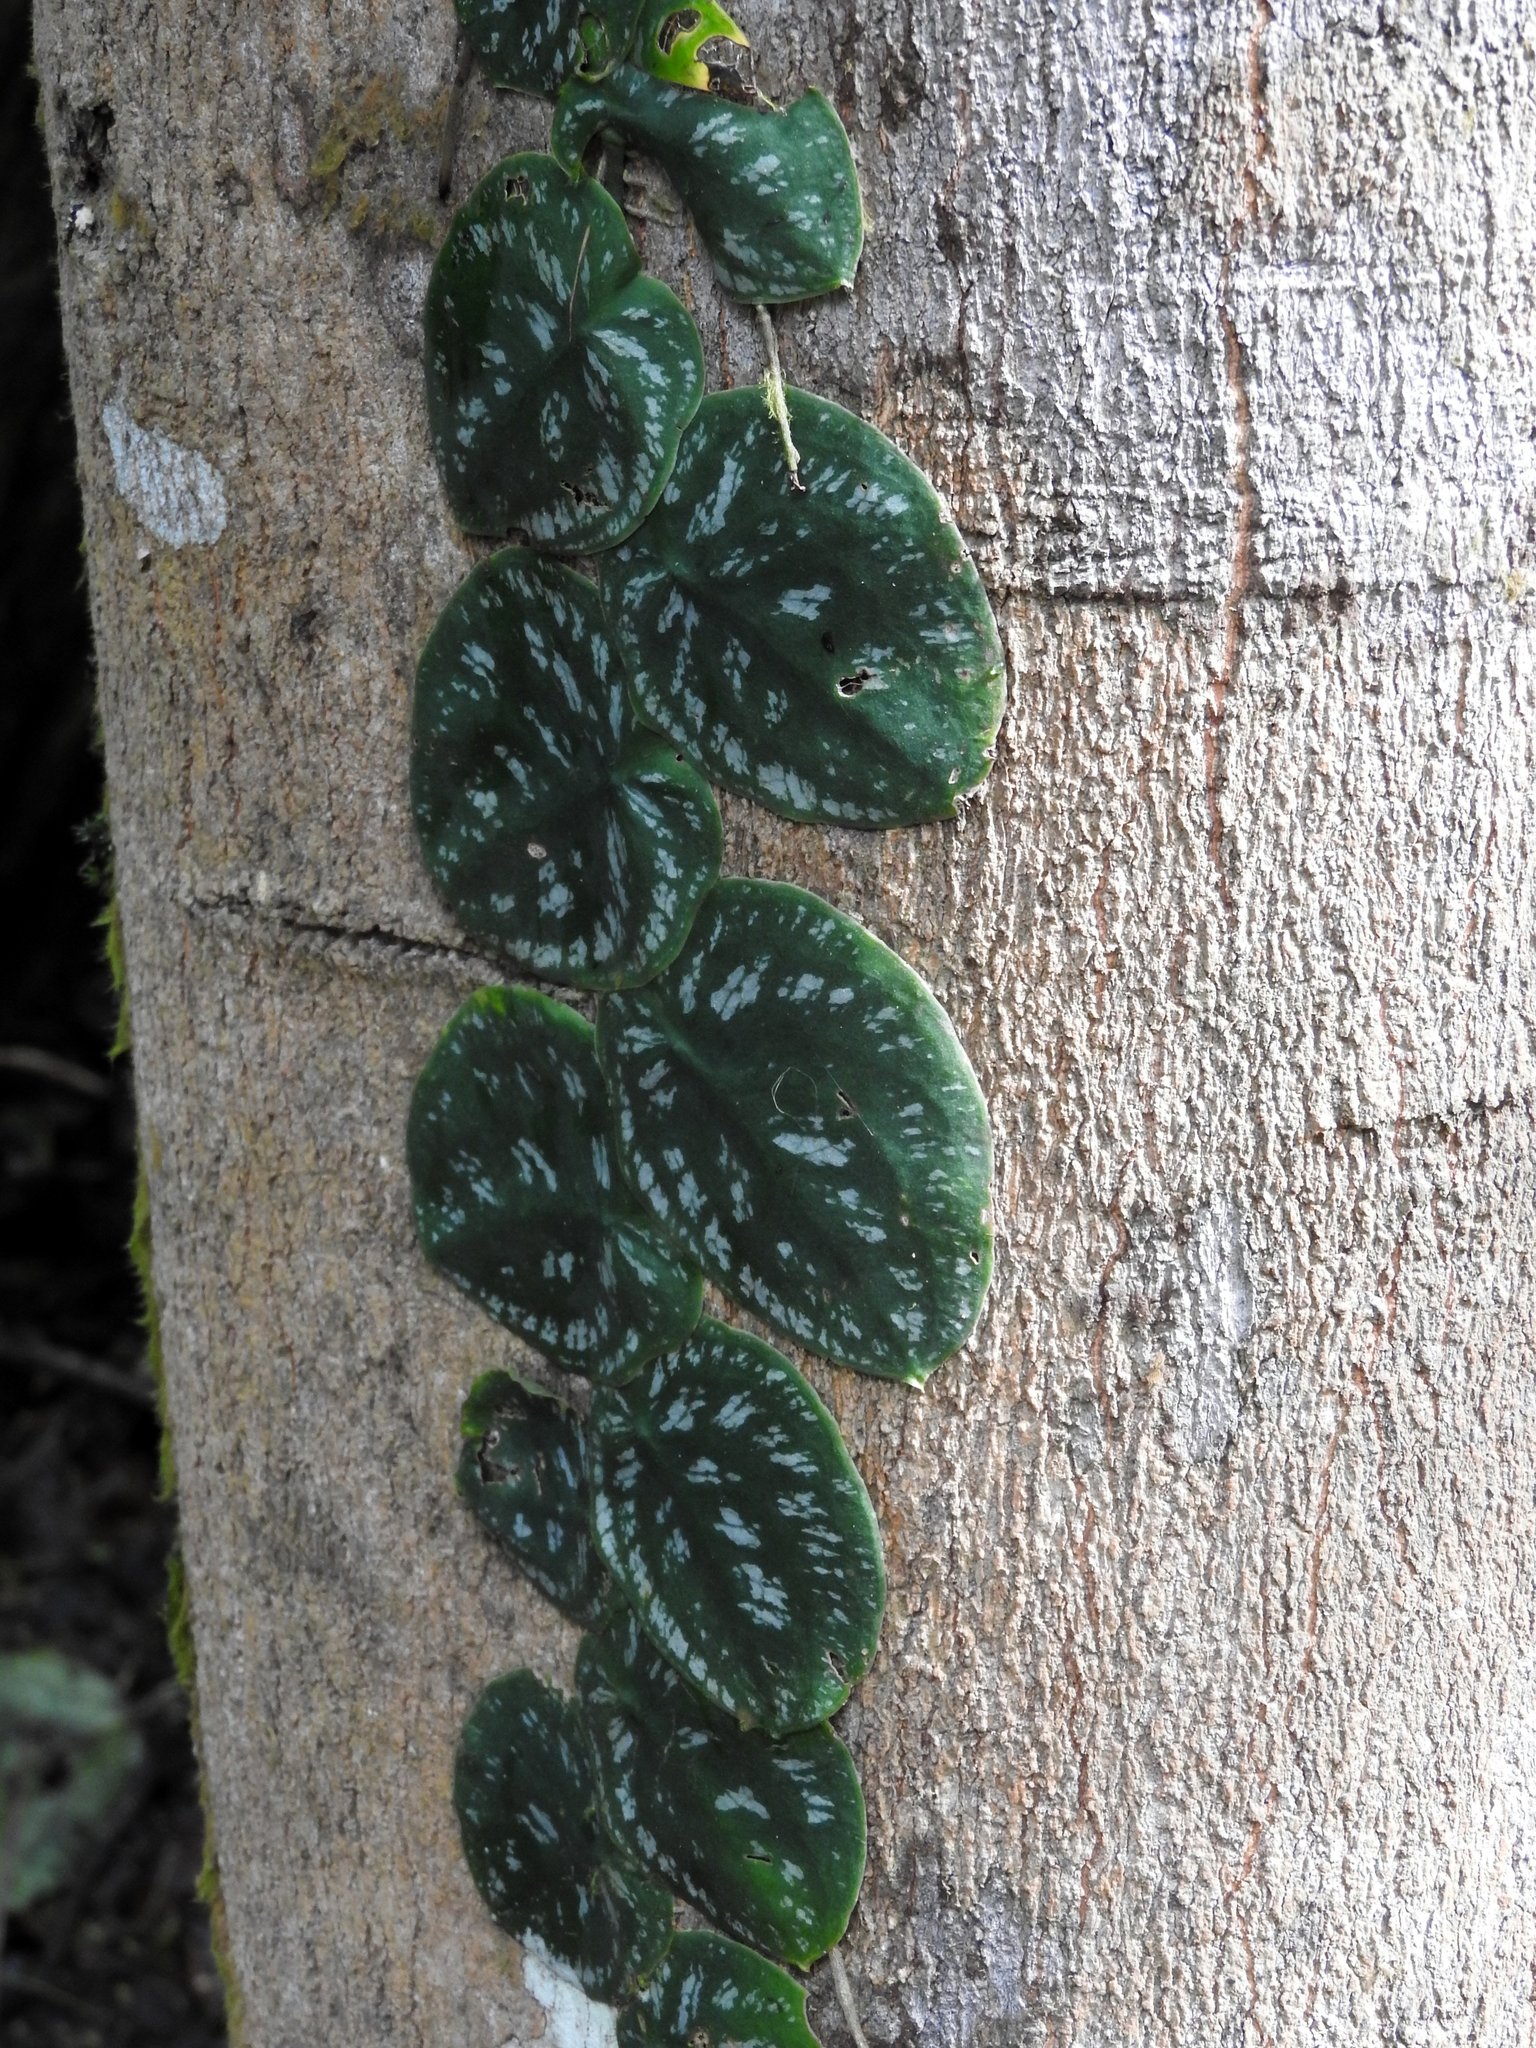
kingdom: Plantae
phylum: Tracheophyta
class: Liliopsida
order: Alismatales
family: Araceae
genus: Monstera
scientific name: Monstera tuberculata
